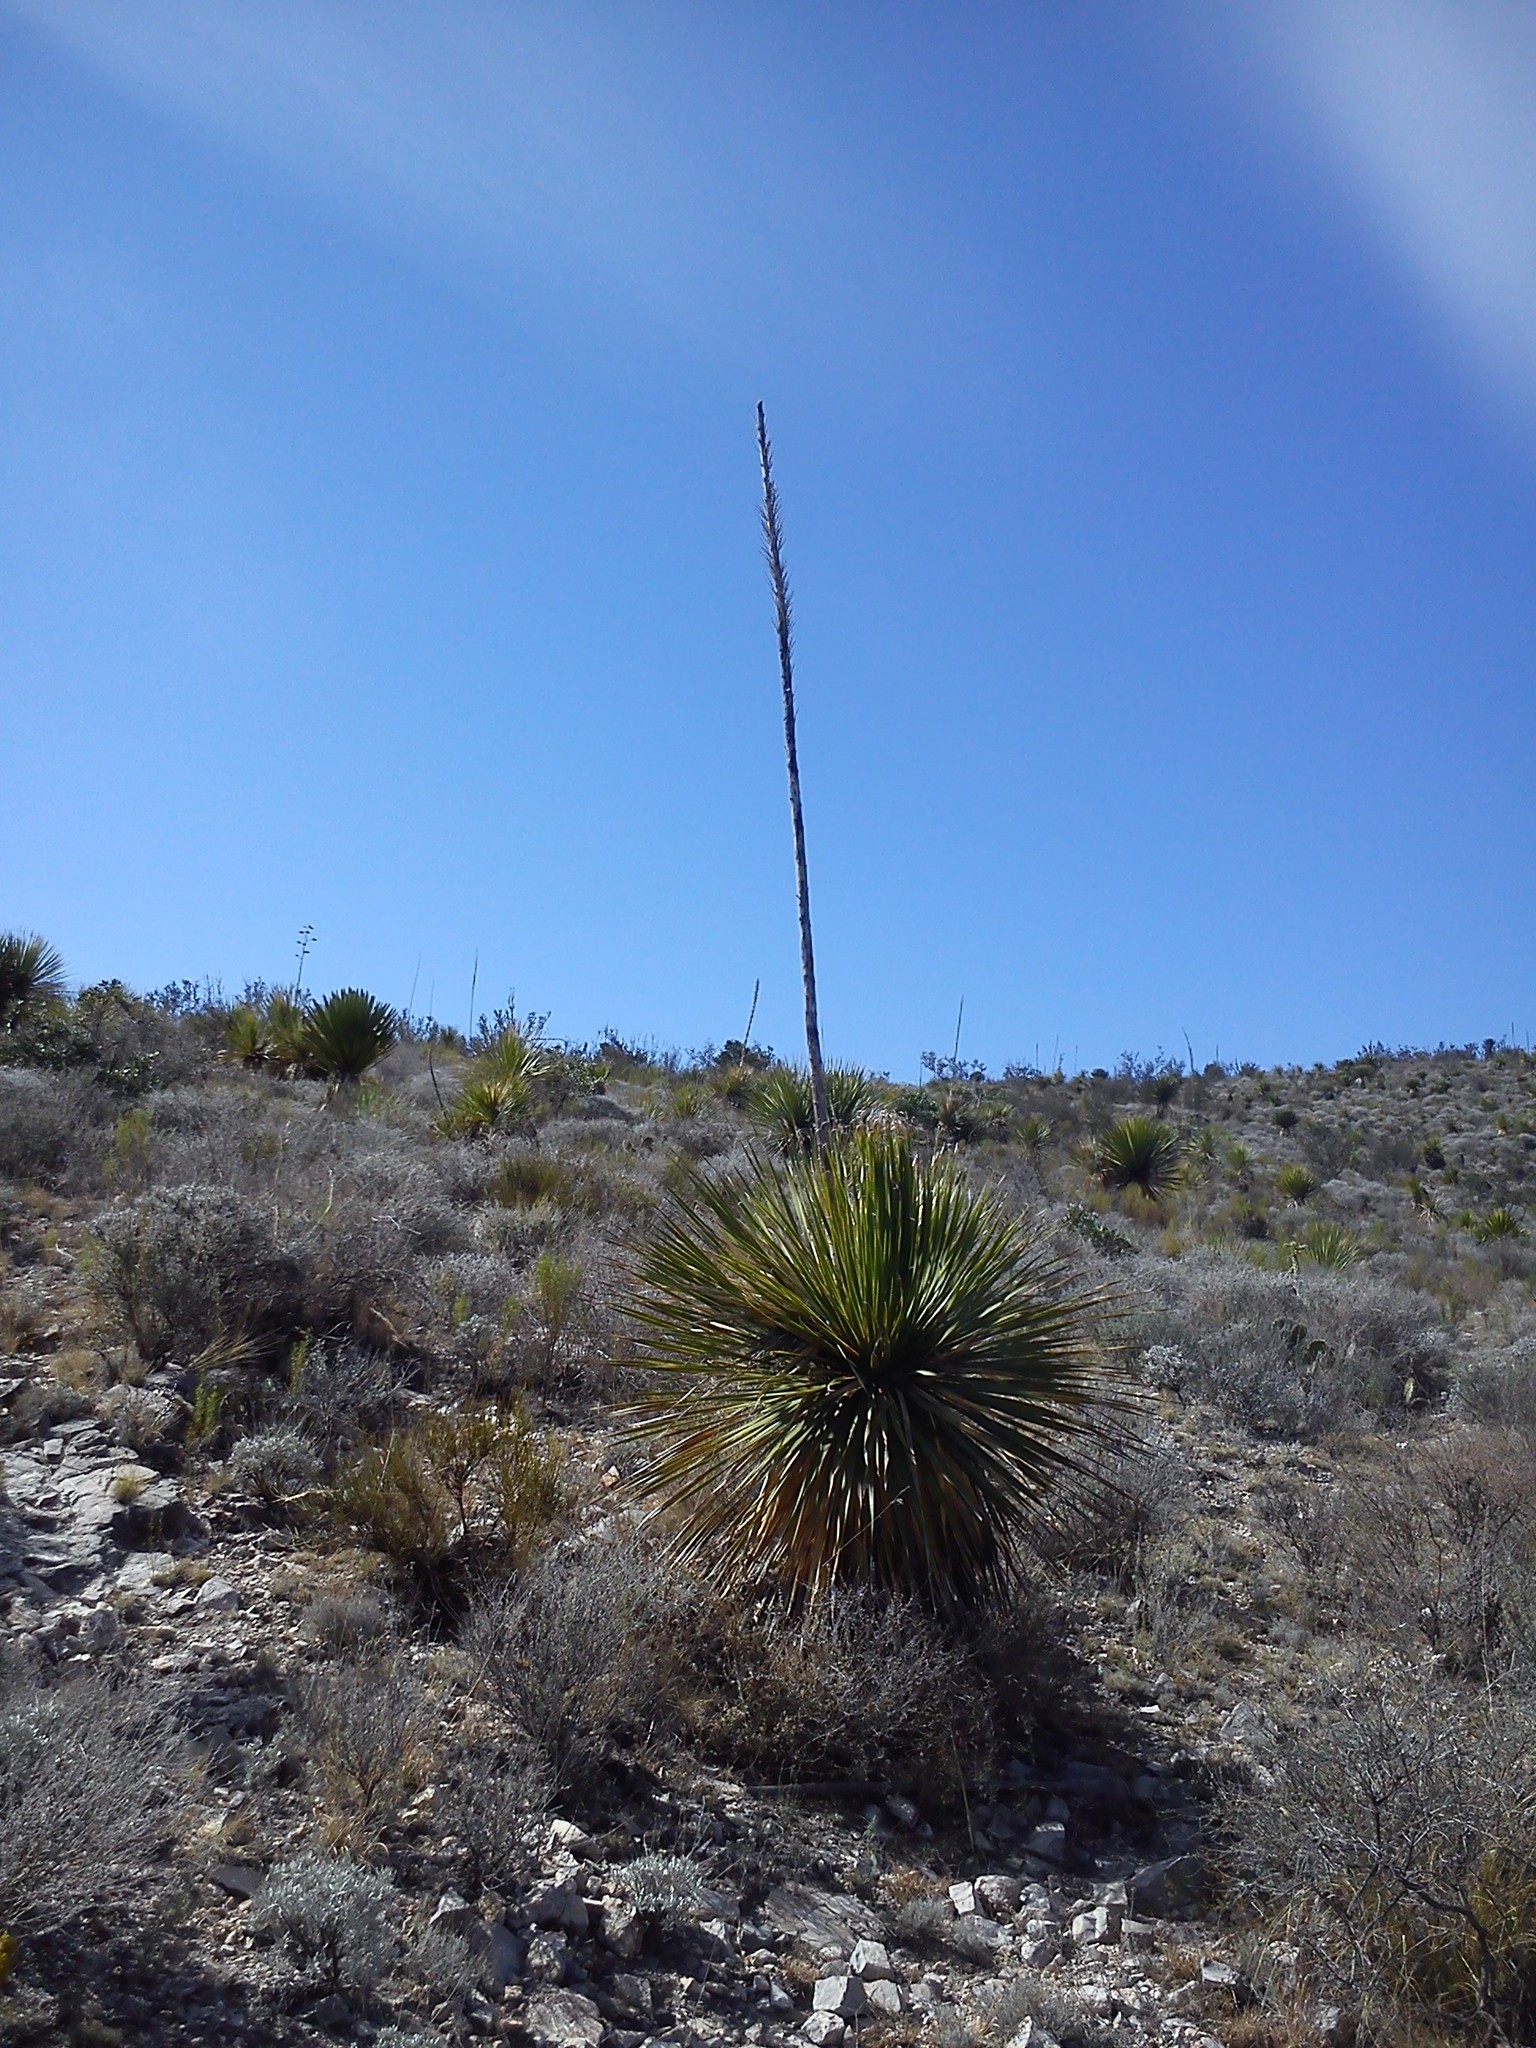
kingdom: Plantae
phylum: Tracheophyta
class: Liliopsida
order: Asparagales
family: Asparagaceae
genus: Dasylirion
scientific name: Dasylirion acrotrichum
